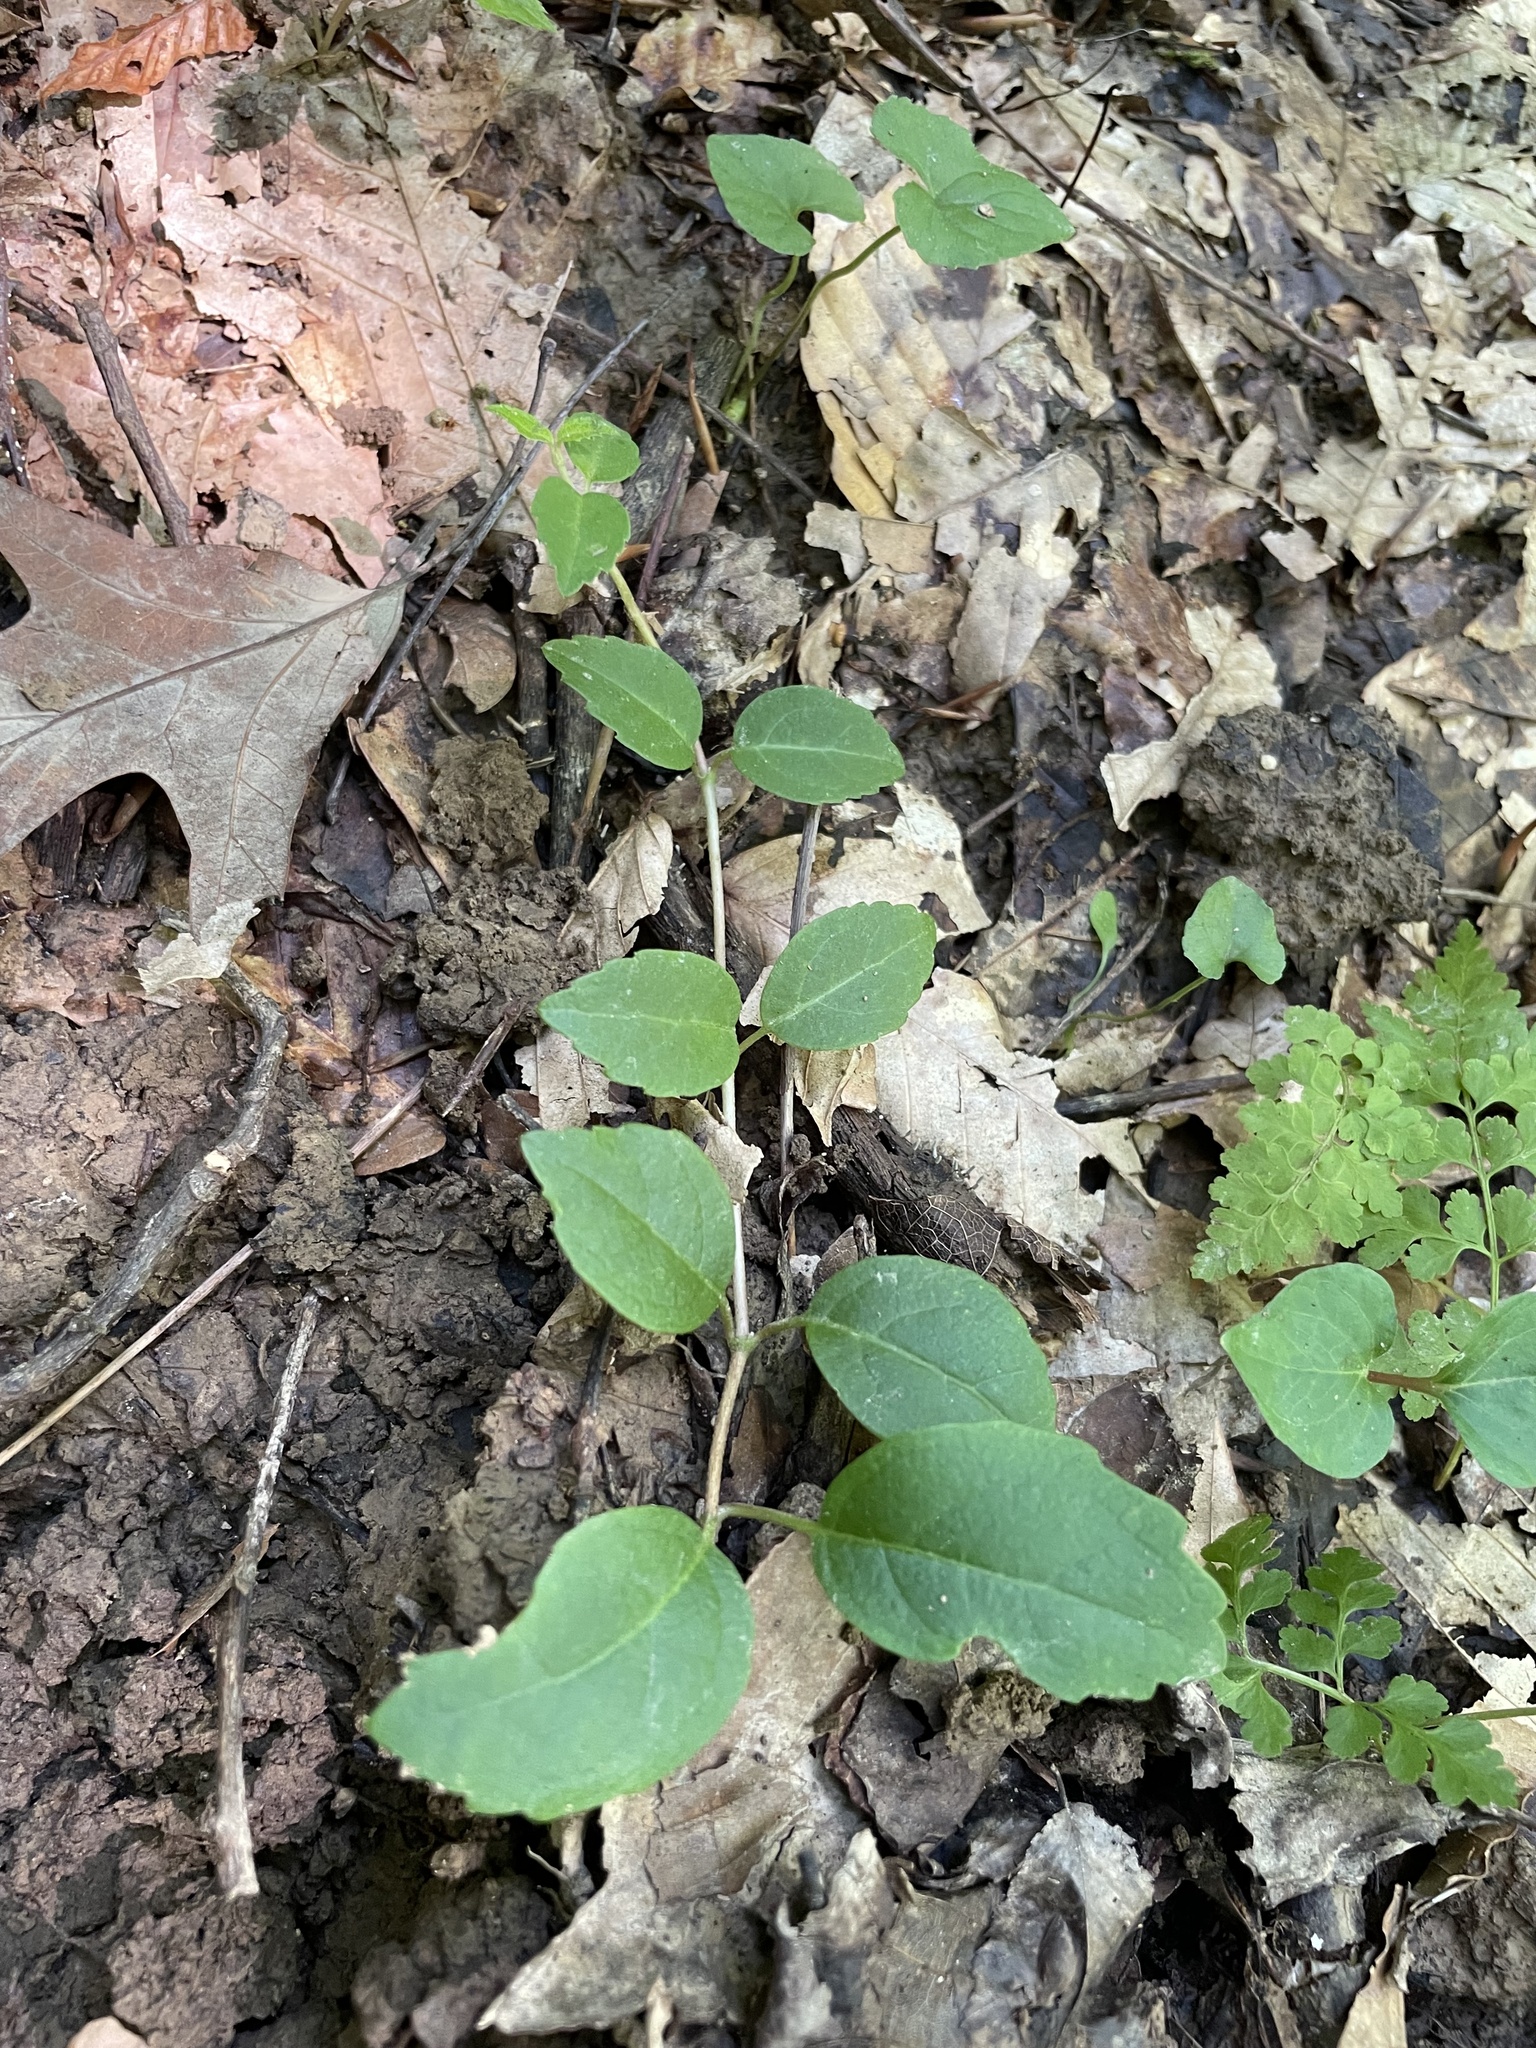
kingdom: Plantae
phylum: Tracheophyta
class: Magnoliopsida
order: Cornales
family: Hydrangeaceae
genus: Hydrangea
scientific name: Hydrangea barbara
